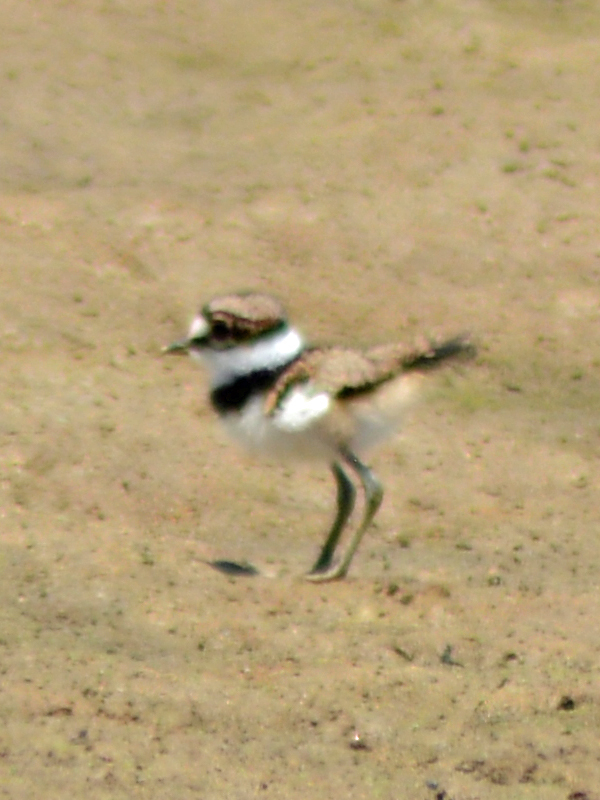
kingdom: Animalia
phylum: Chordata
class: Aves
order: Charadriiformes
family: Charadriidae
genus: Charadrius
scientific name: Charadrius vociferus
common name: Killdeer
